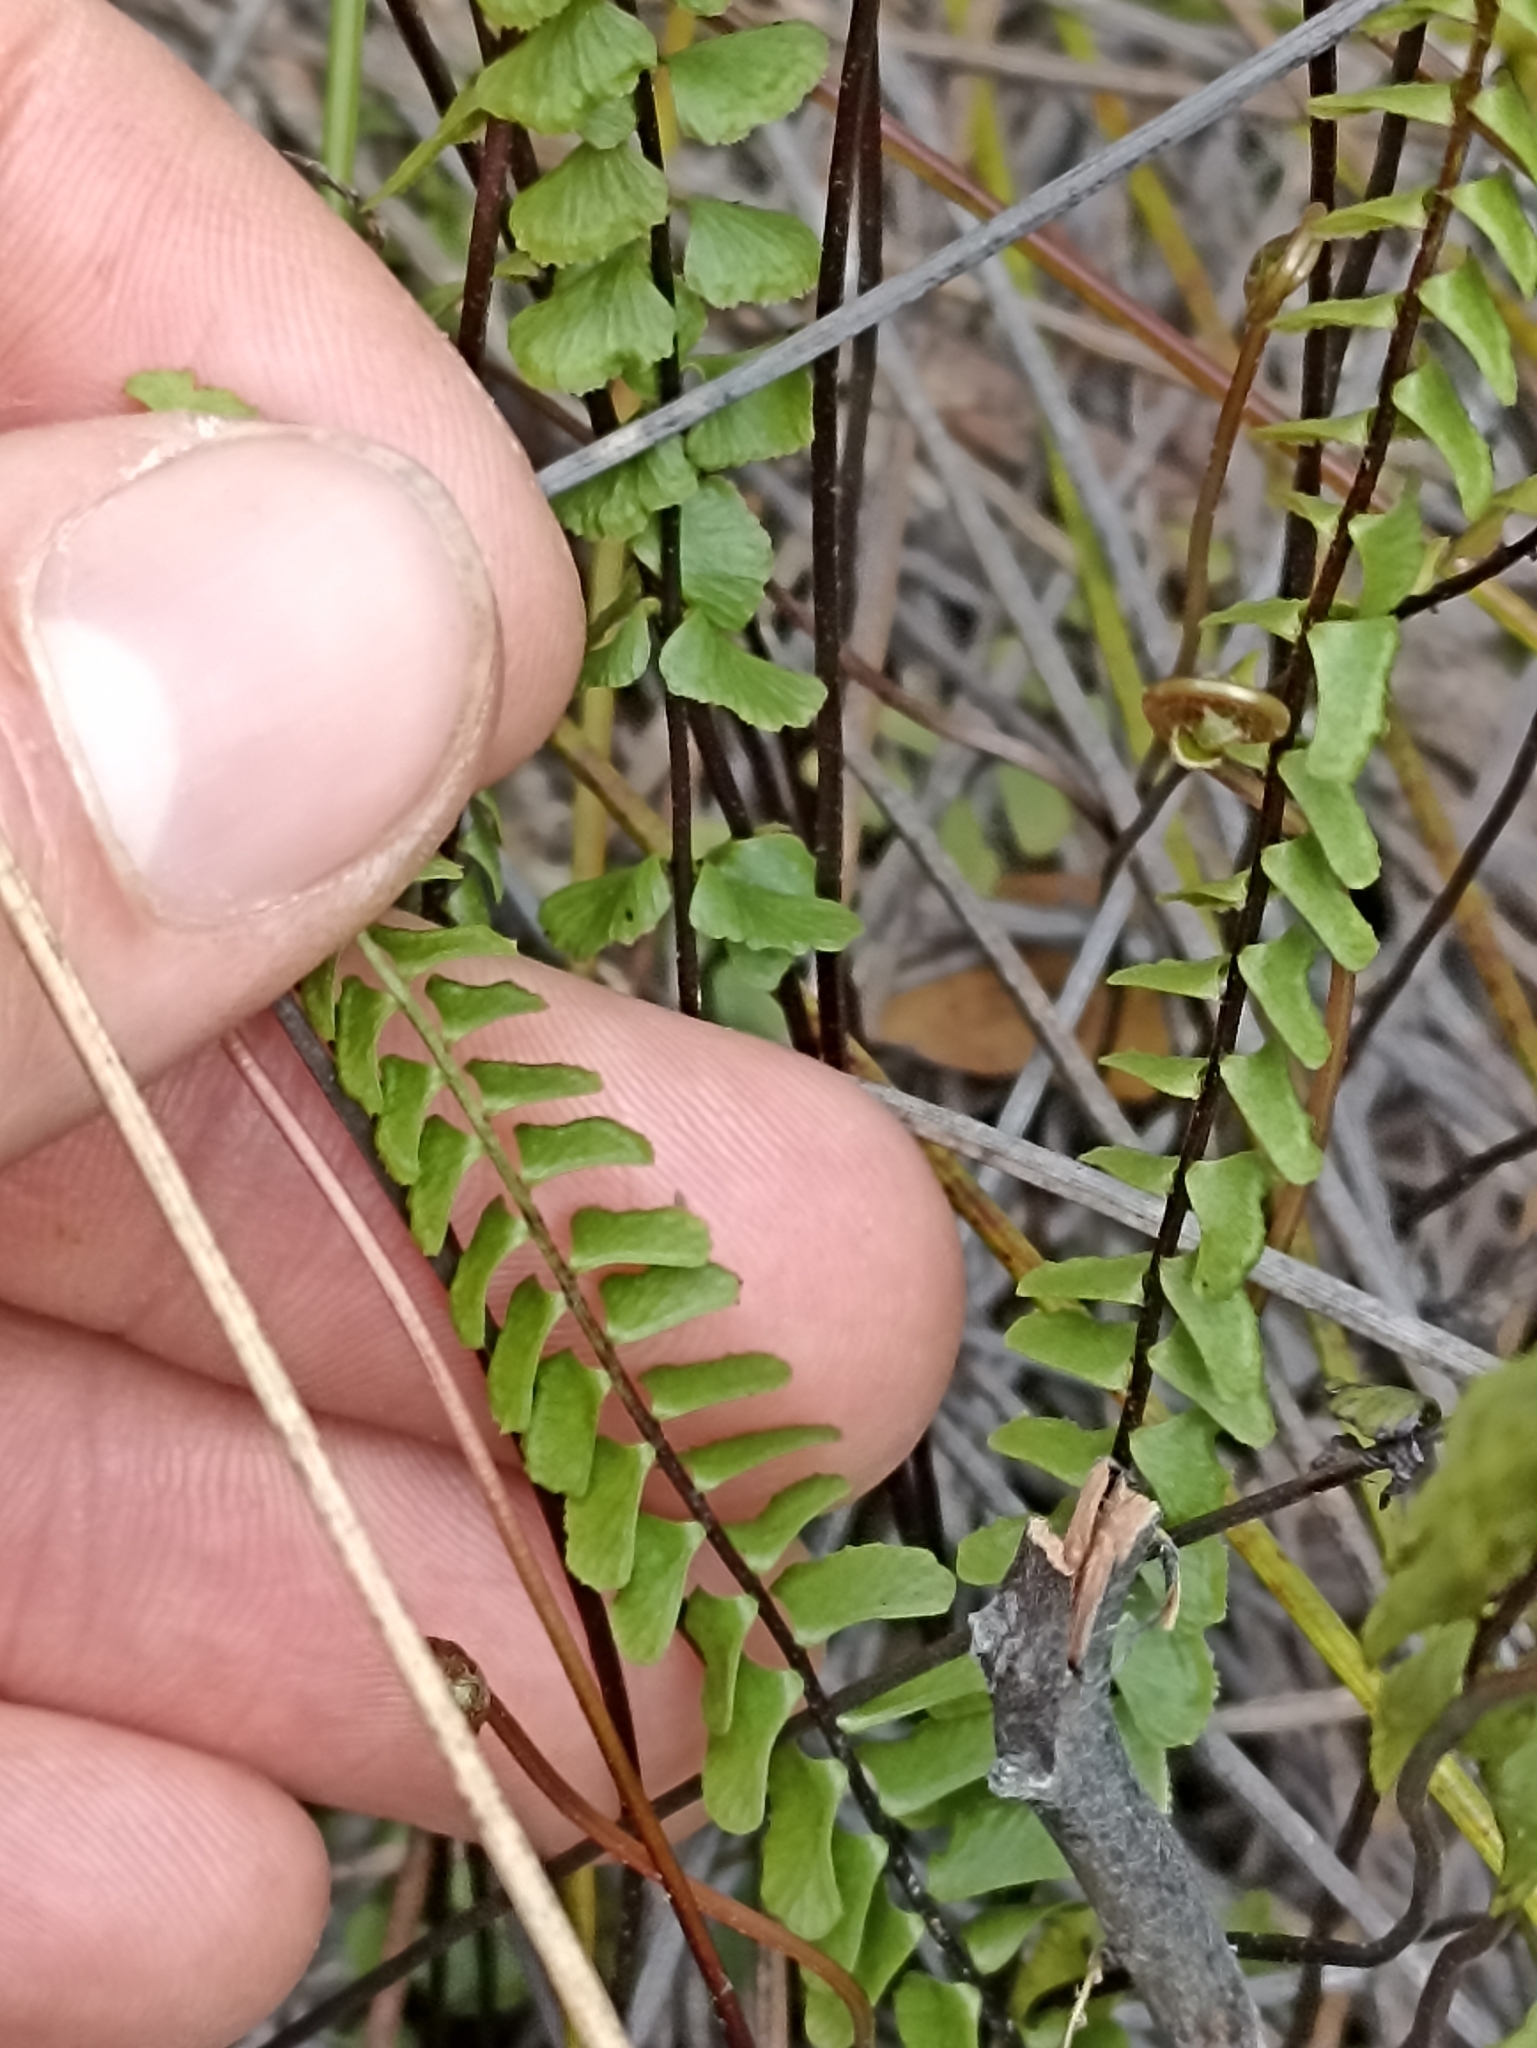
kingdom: Plantae
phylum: Tracheophyta
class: Polypodiopsida
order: Polypodiales
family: Lindsaeaceae
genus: Lindsaea
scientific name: Lindsaea linearis
